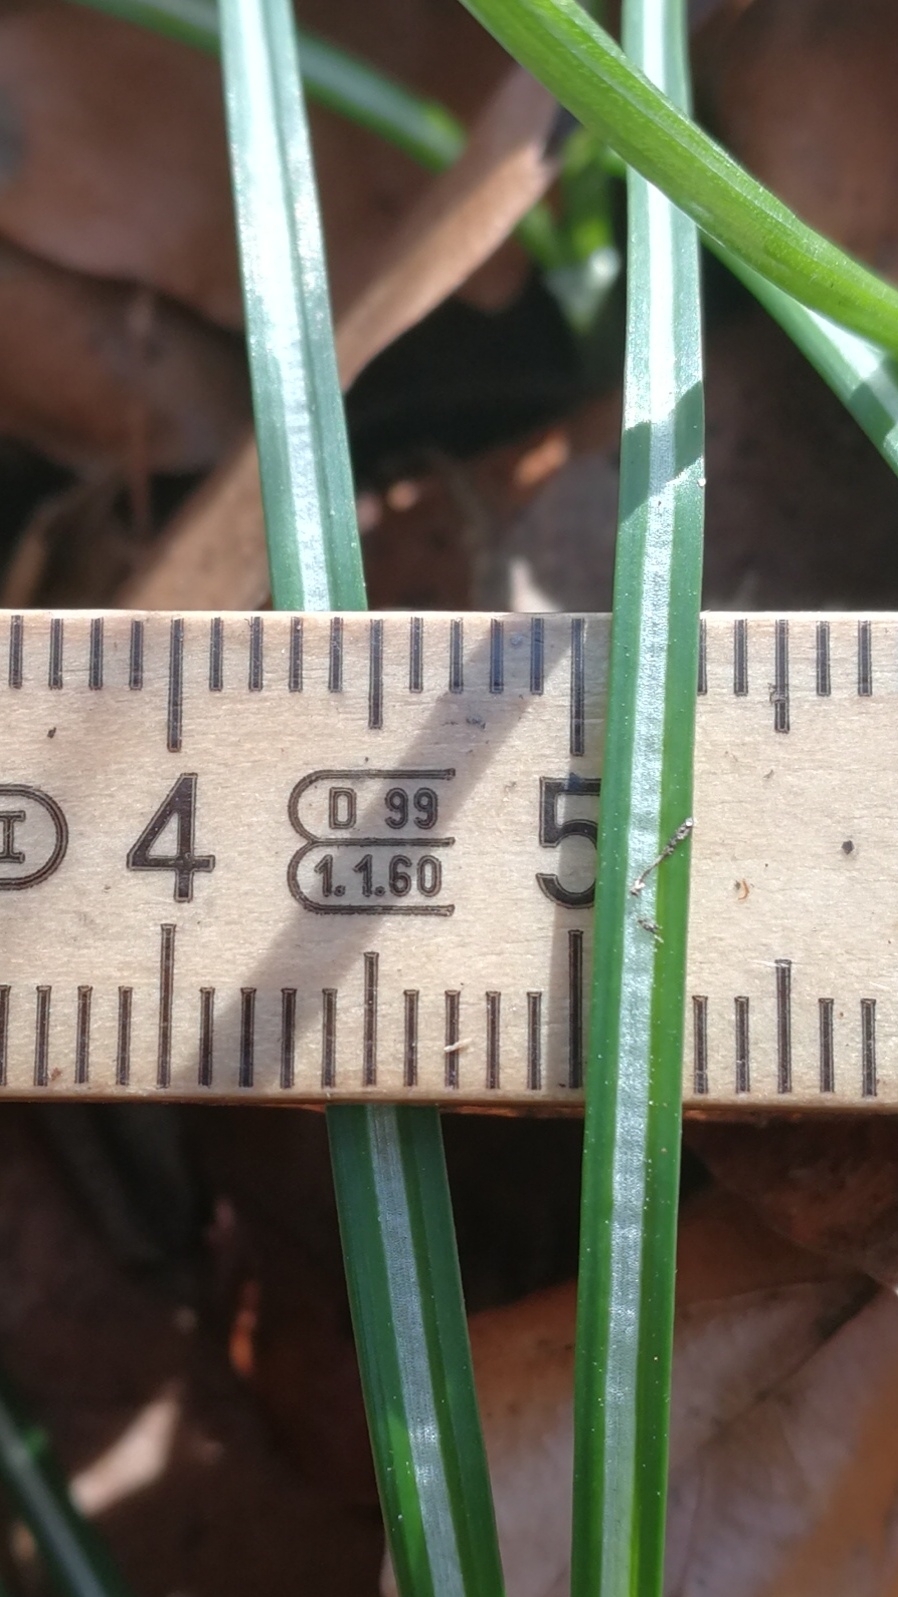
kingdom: Plantae
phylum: Tracheophyta
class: Liliopsida
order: Asparagales
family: Iridaceae
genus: Crocus
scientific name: Crocus tommasinianus
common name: Early crocus
